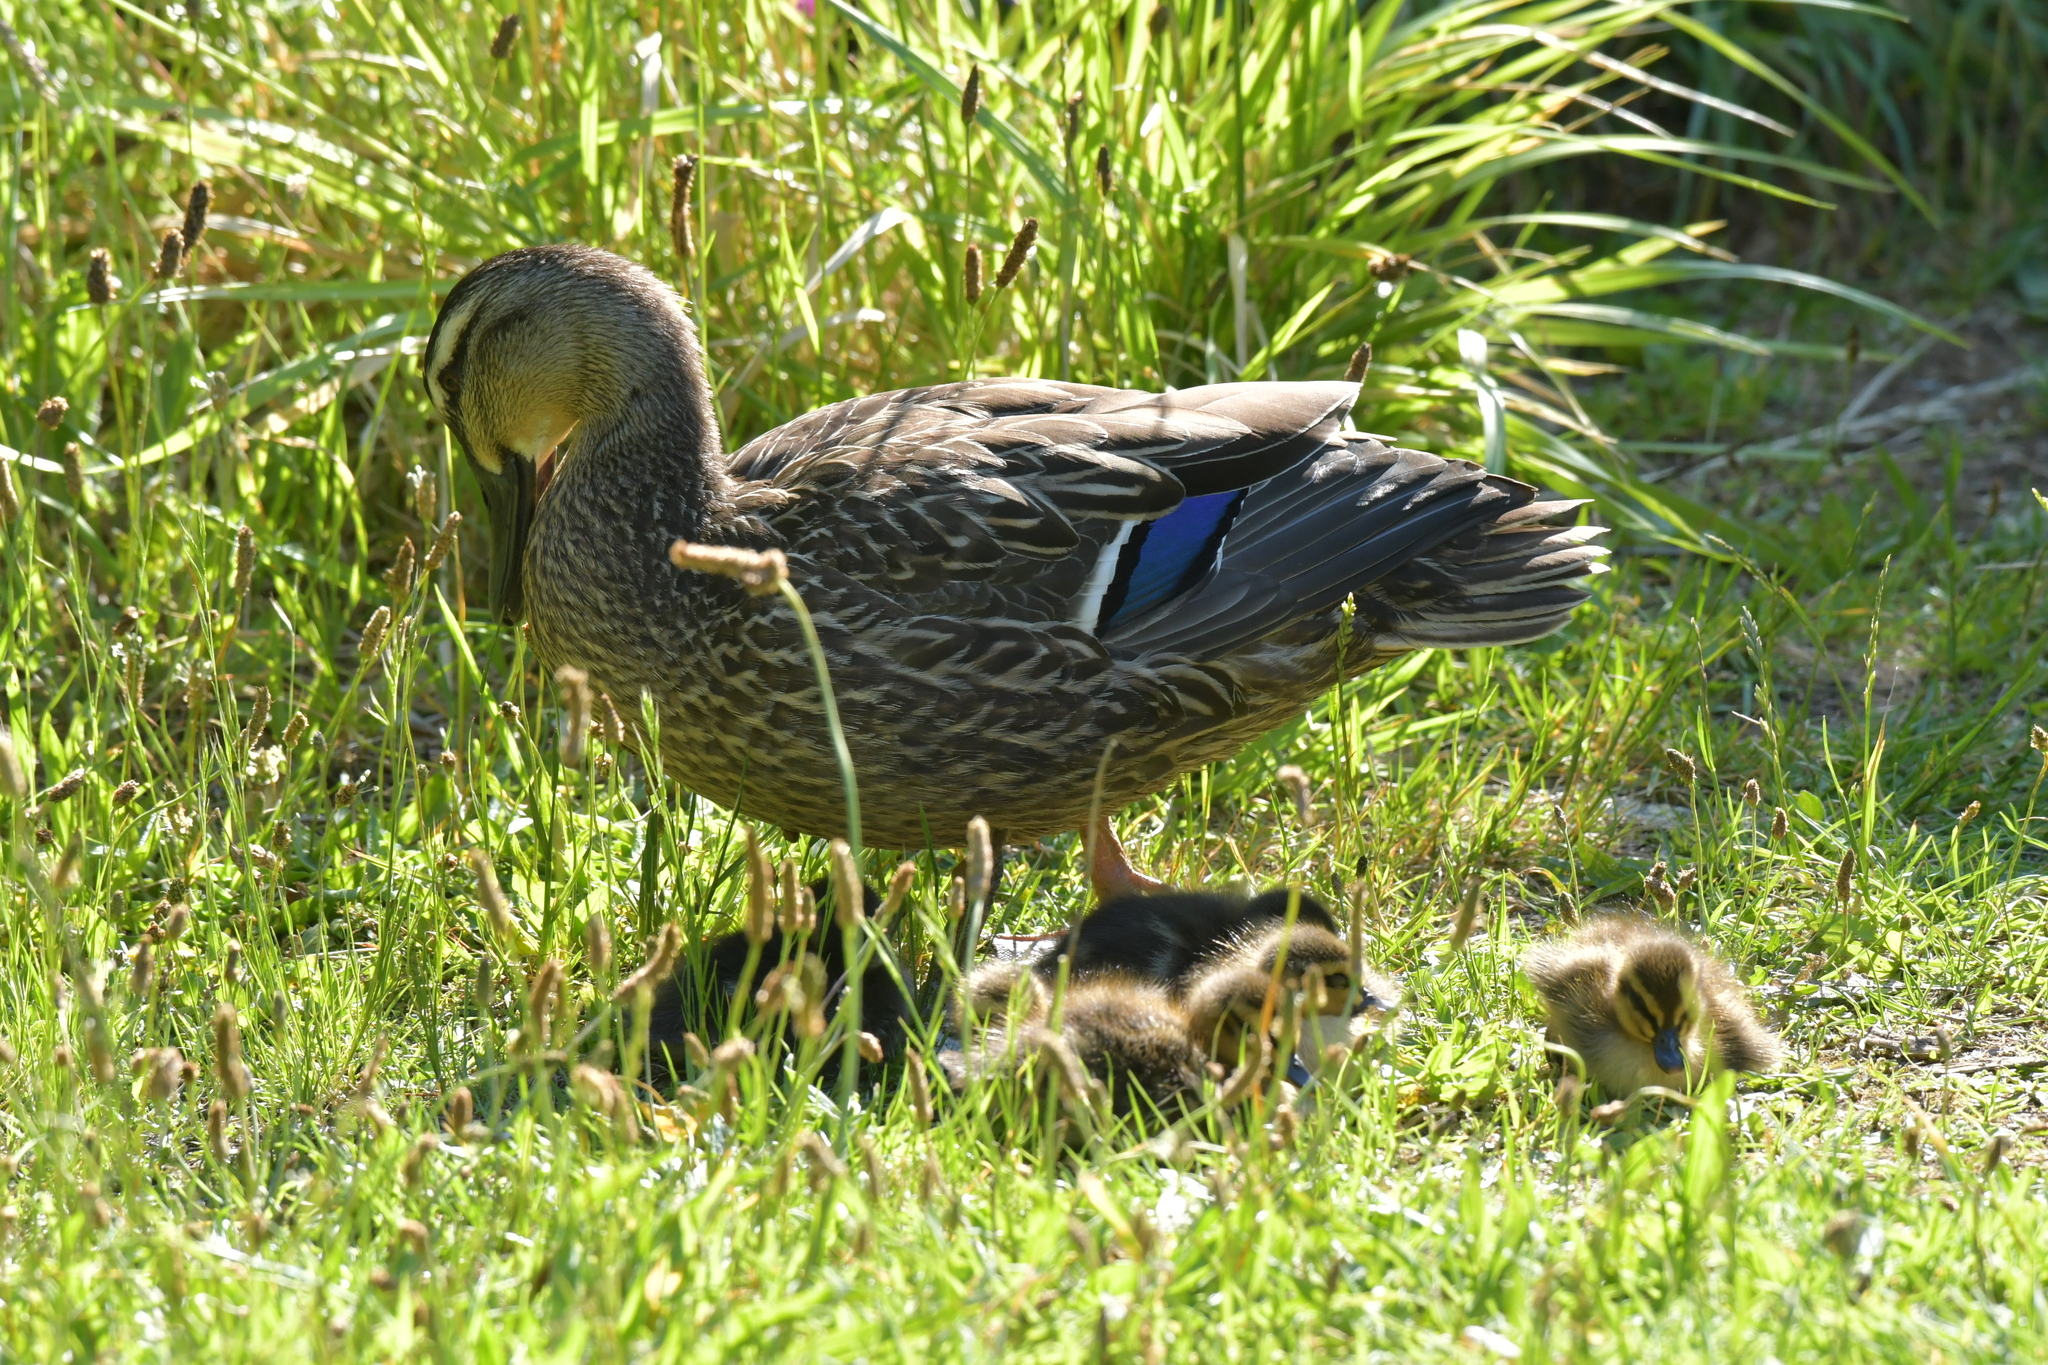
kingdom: Animalia
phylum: Chordata
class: Aves
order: Anseriformes
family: Anatidae
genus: Anas
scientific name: Anas
